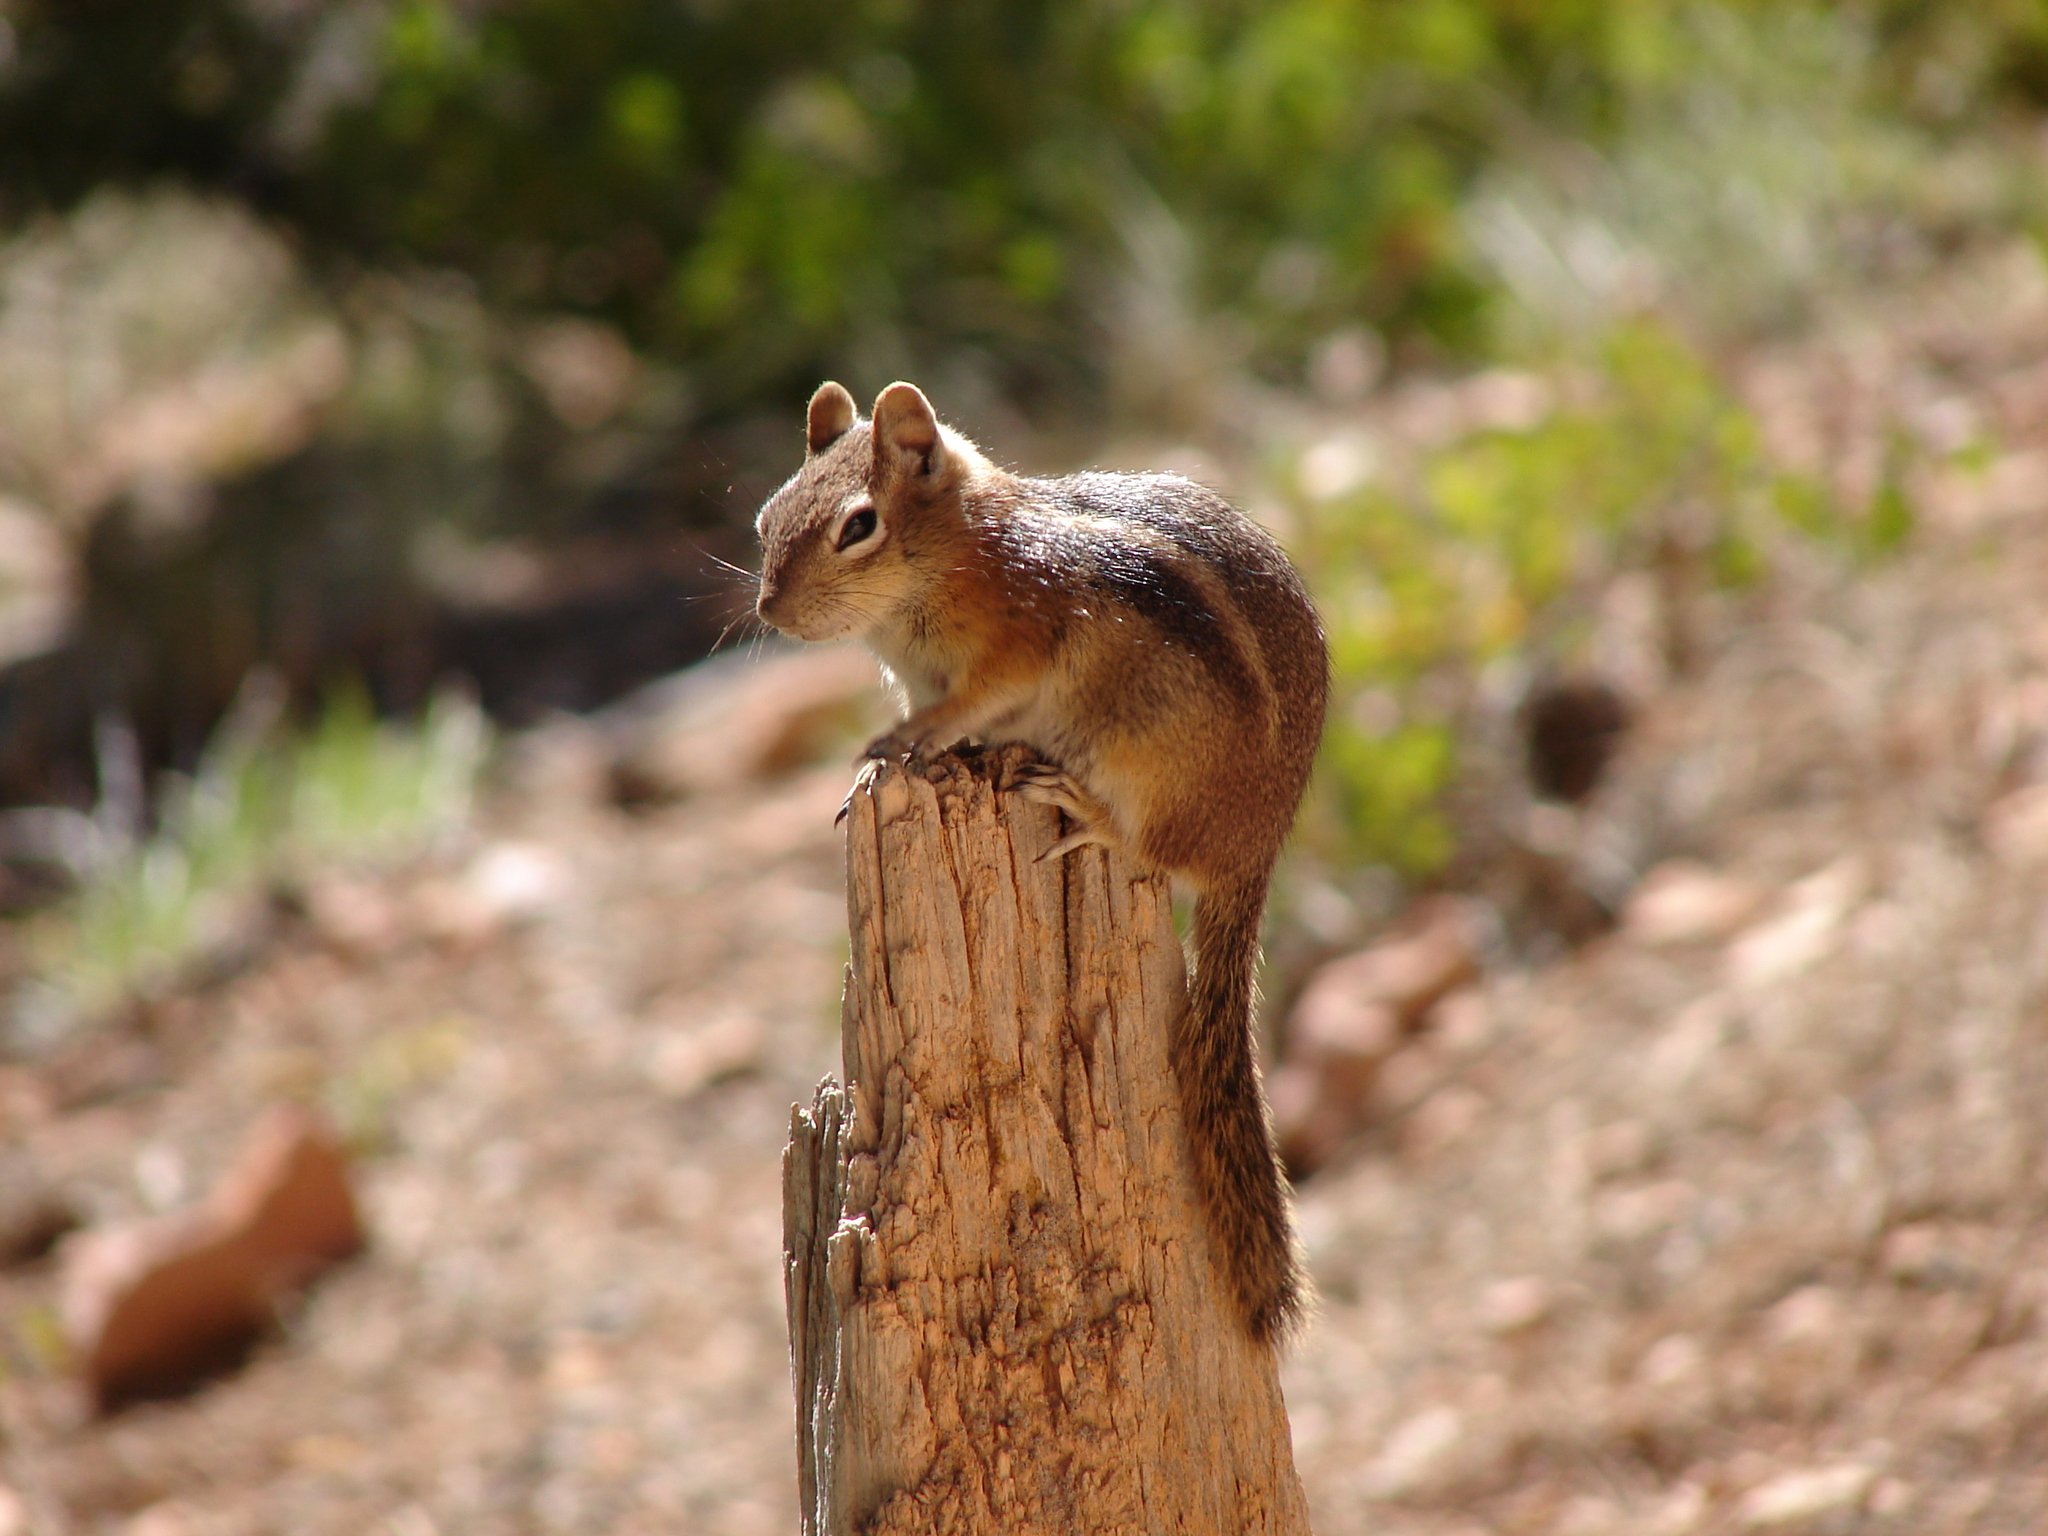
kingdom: Animalia
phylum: Chordata
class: Mammalia
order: Rodentia
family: Sciuridae
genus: Callospermophilus
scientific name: Callospermophilus lateralis
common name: Golden-mantled ground squirrel
